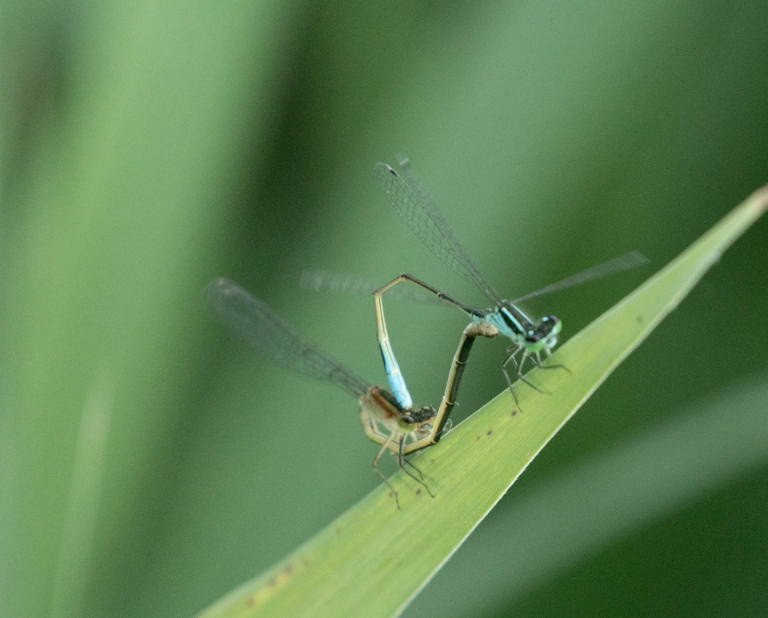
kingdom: Animalia
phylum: Arthropoda
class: Insecta
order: Odonata
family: Coenagrionidae
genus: Ischnura
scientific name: Ischnura elegans
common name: Blue-tailed damselfly
